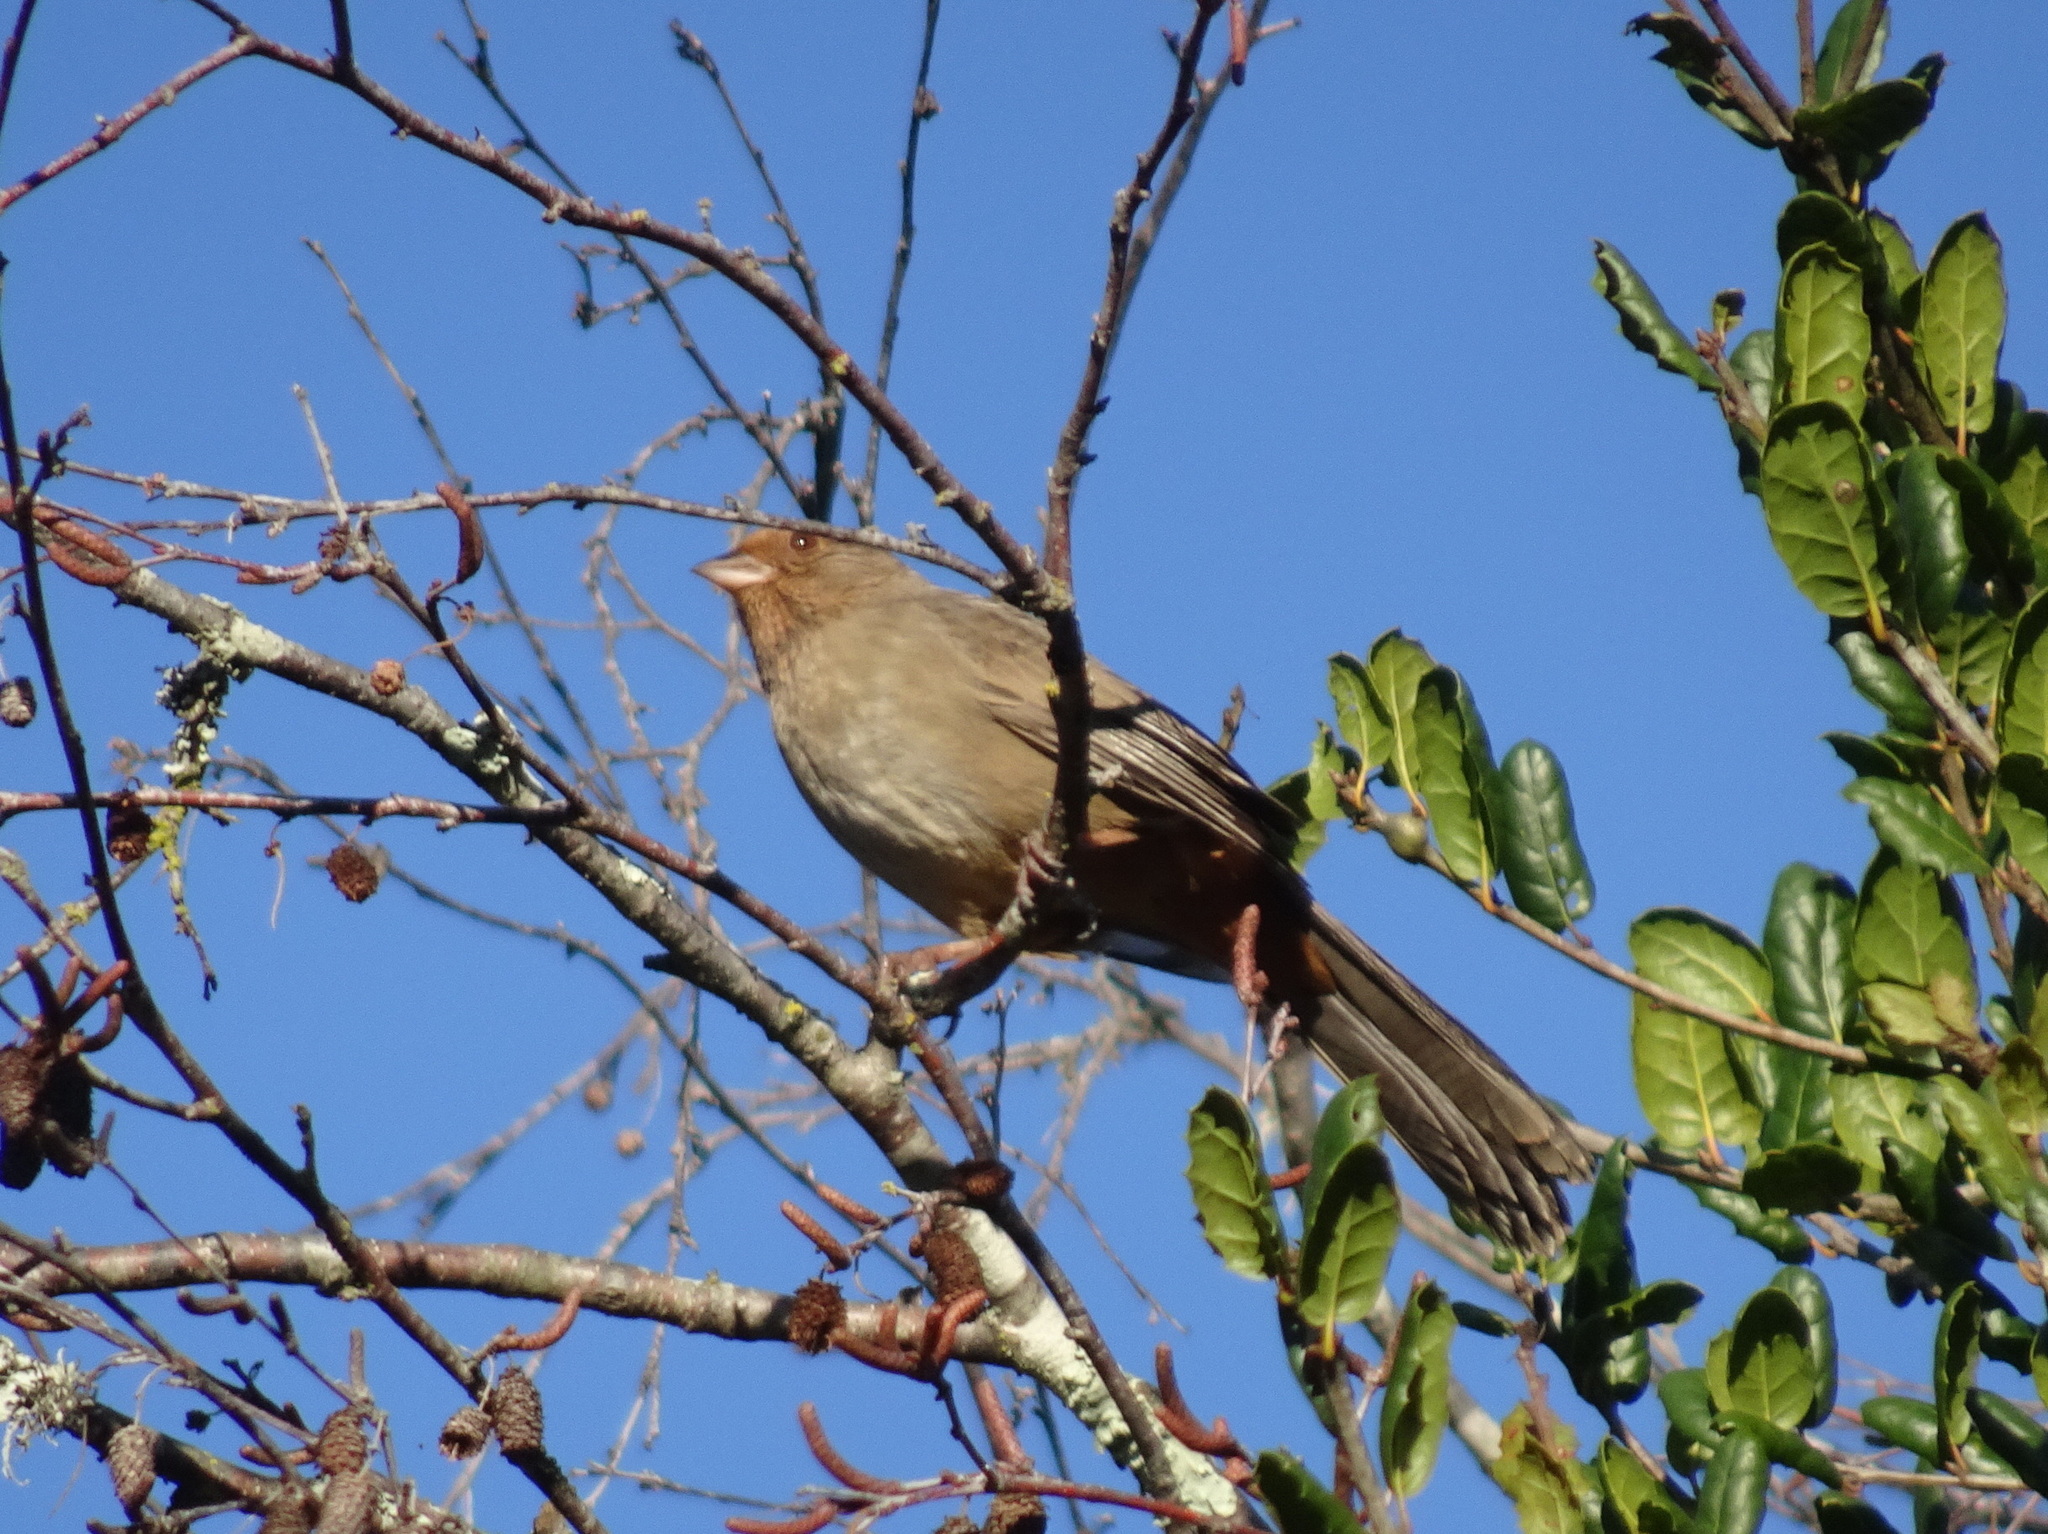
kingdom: Animalia
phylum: Chordata
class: Aves
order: Passeriformes
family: Passerellidae
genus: Melozone
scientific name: Melozone crissalis
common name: California towhee
